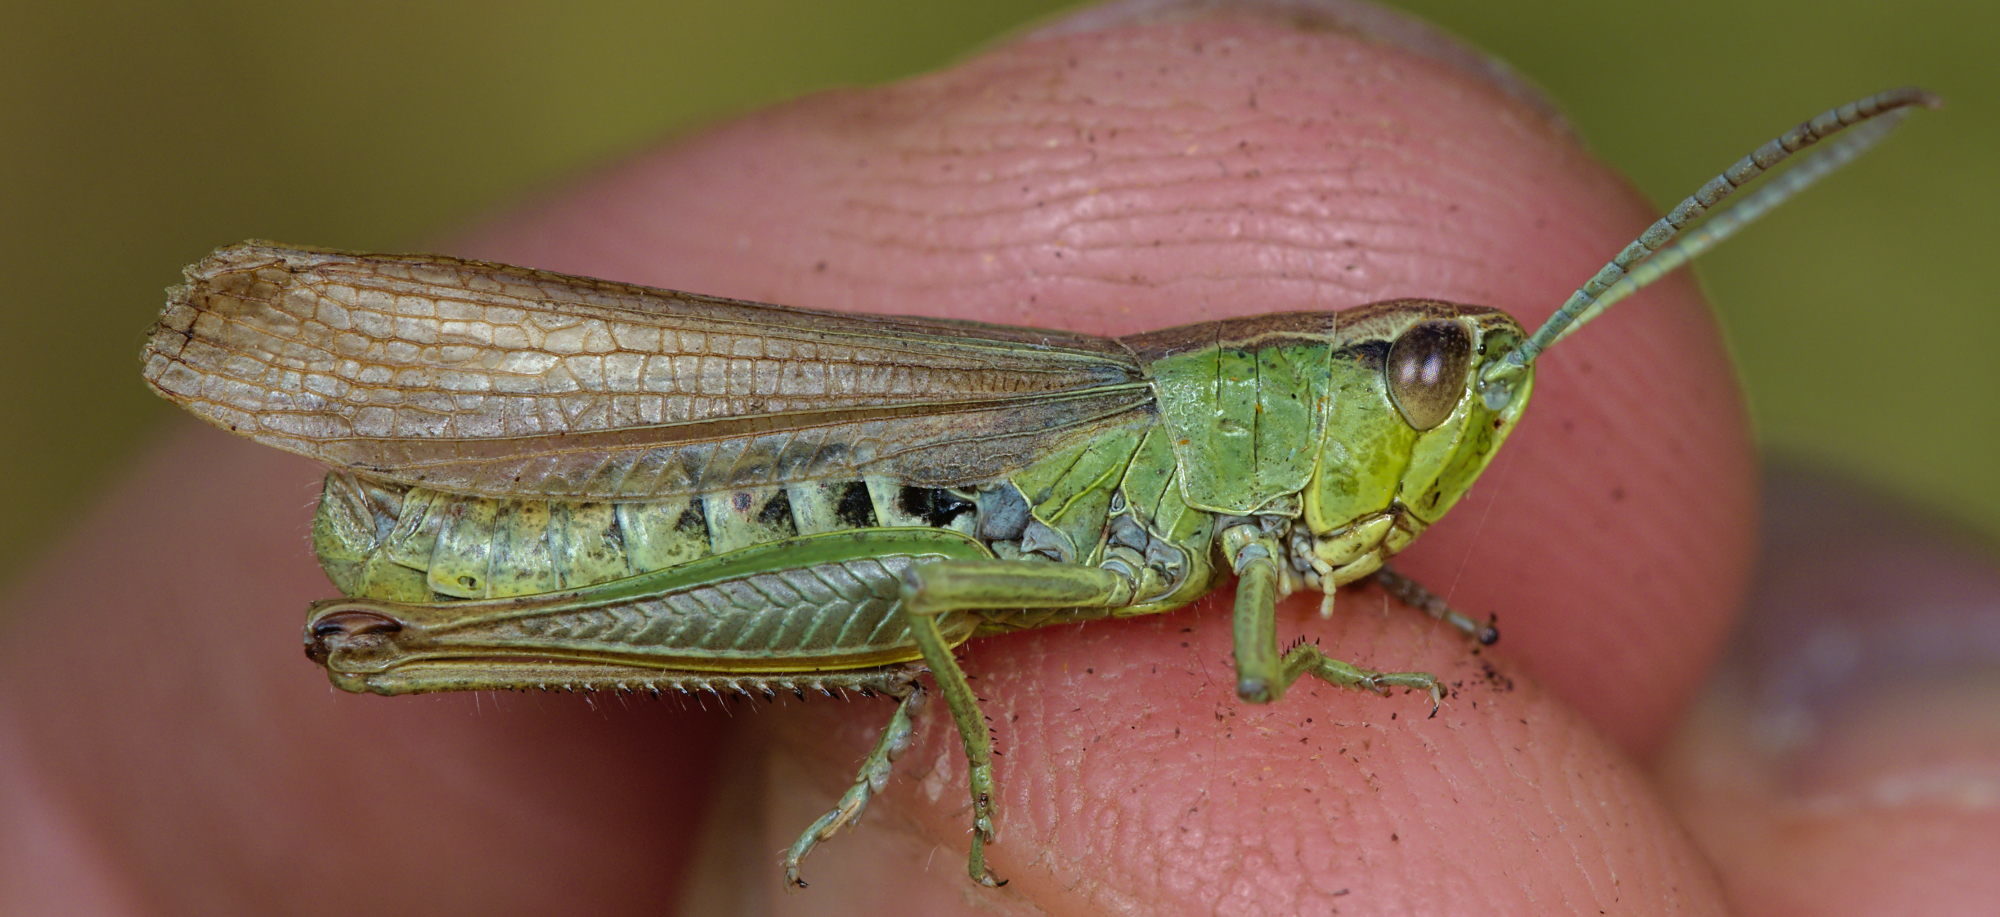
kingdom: Animalia
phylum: Arthropoda
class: Insecta
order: Orthoptera
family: Acrididae
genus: Pseudochorthippus
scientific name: Pseudochorthippus parallelus
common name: Meadow grasshopper
